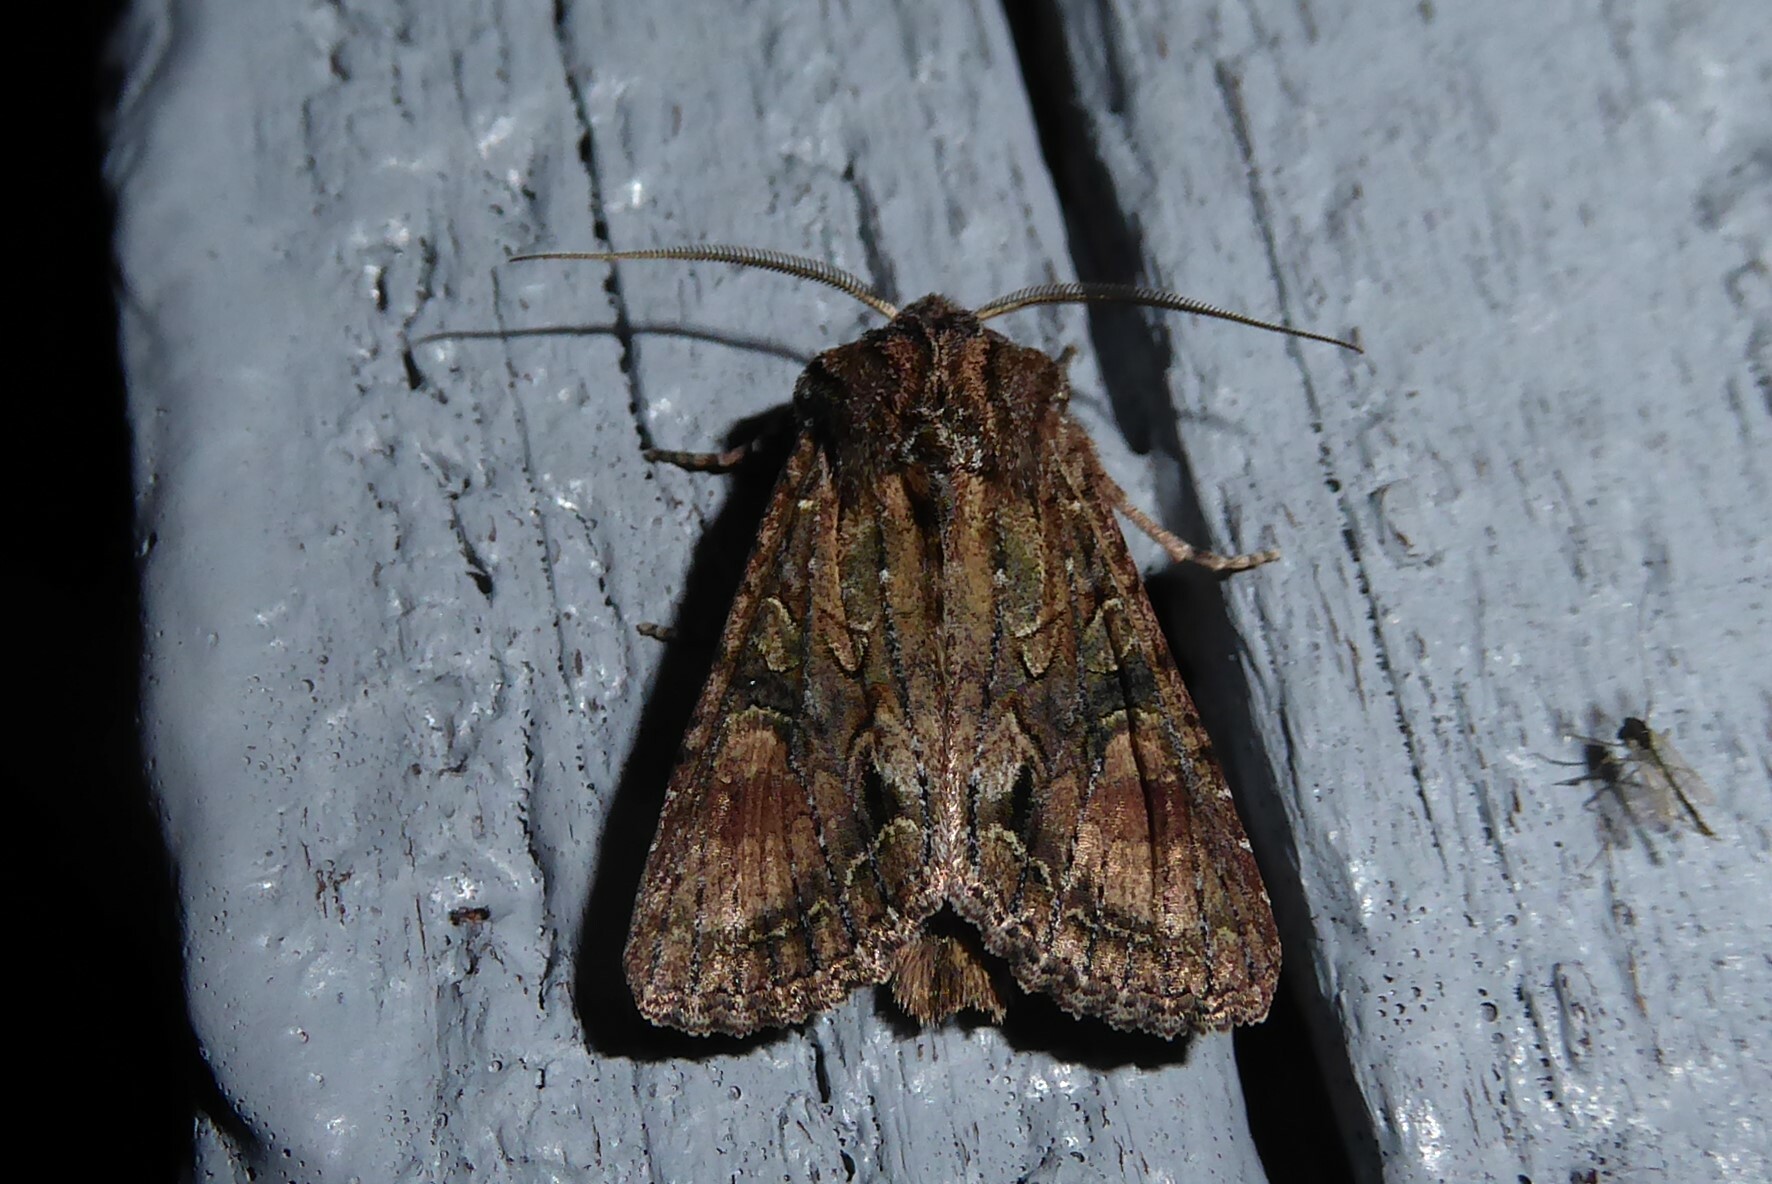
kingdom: Animalia
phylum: Arthropoda
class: Insecta
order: Lepidoptera
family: Noctuidae
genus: Ichneutica
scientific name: Ichneutica mutans
